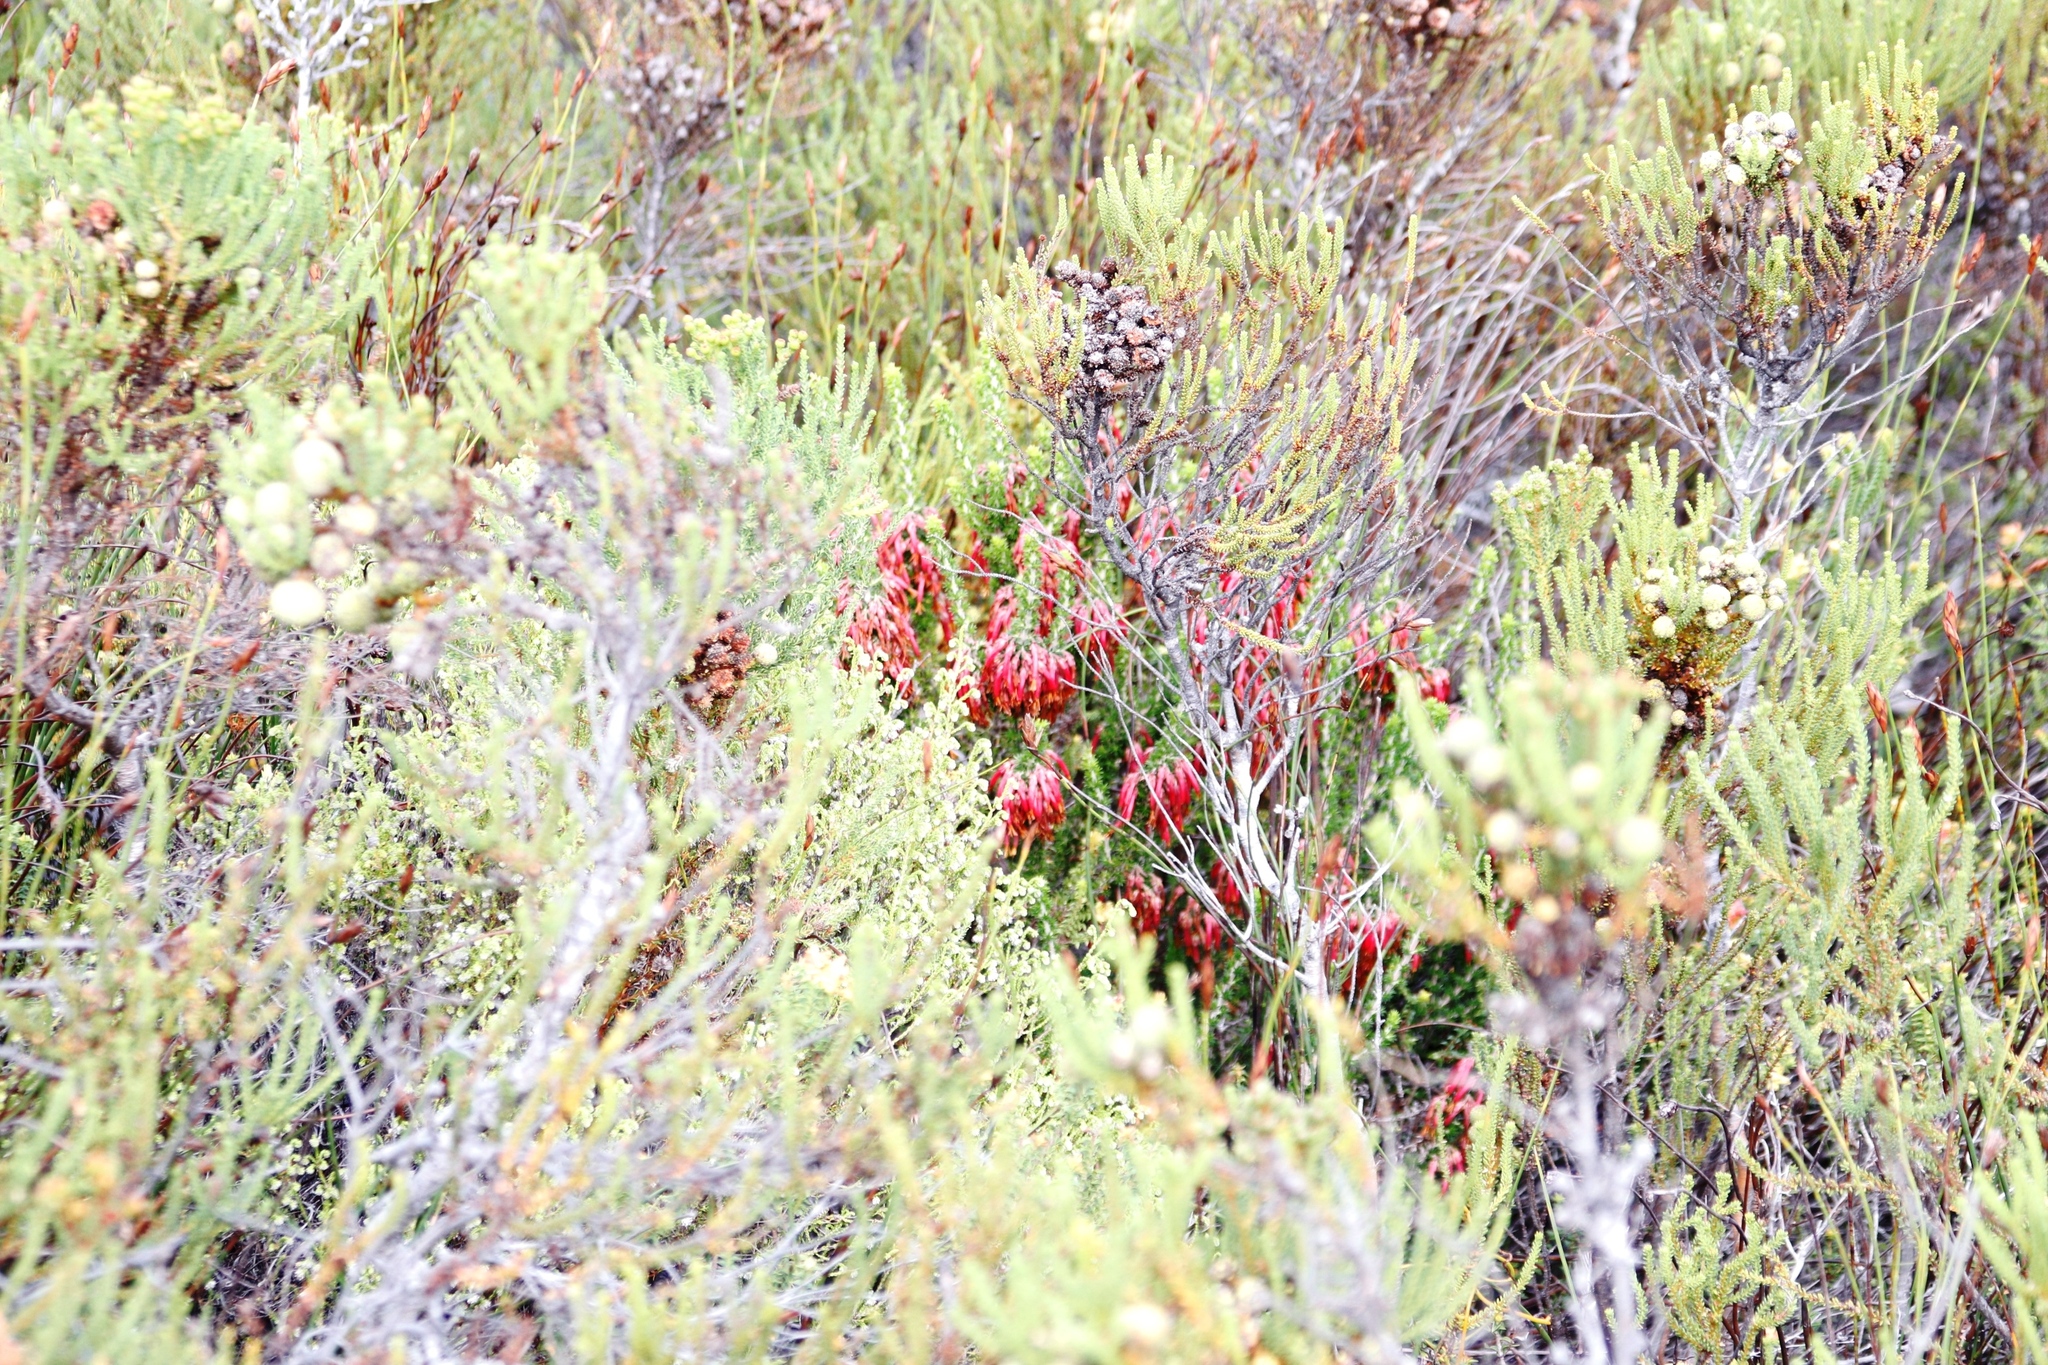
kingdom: Plantae
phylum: Tracheophyta
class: Magnoliopsida
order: Ericales
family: Ericaceae
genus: Erica
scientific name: Erica coccinea
